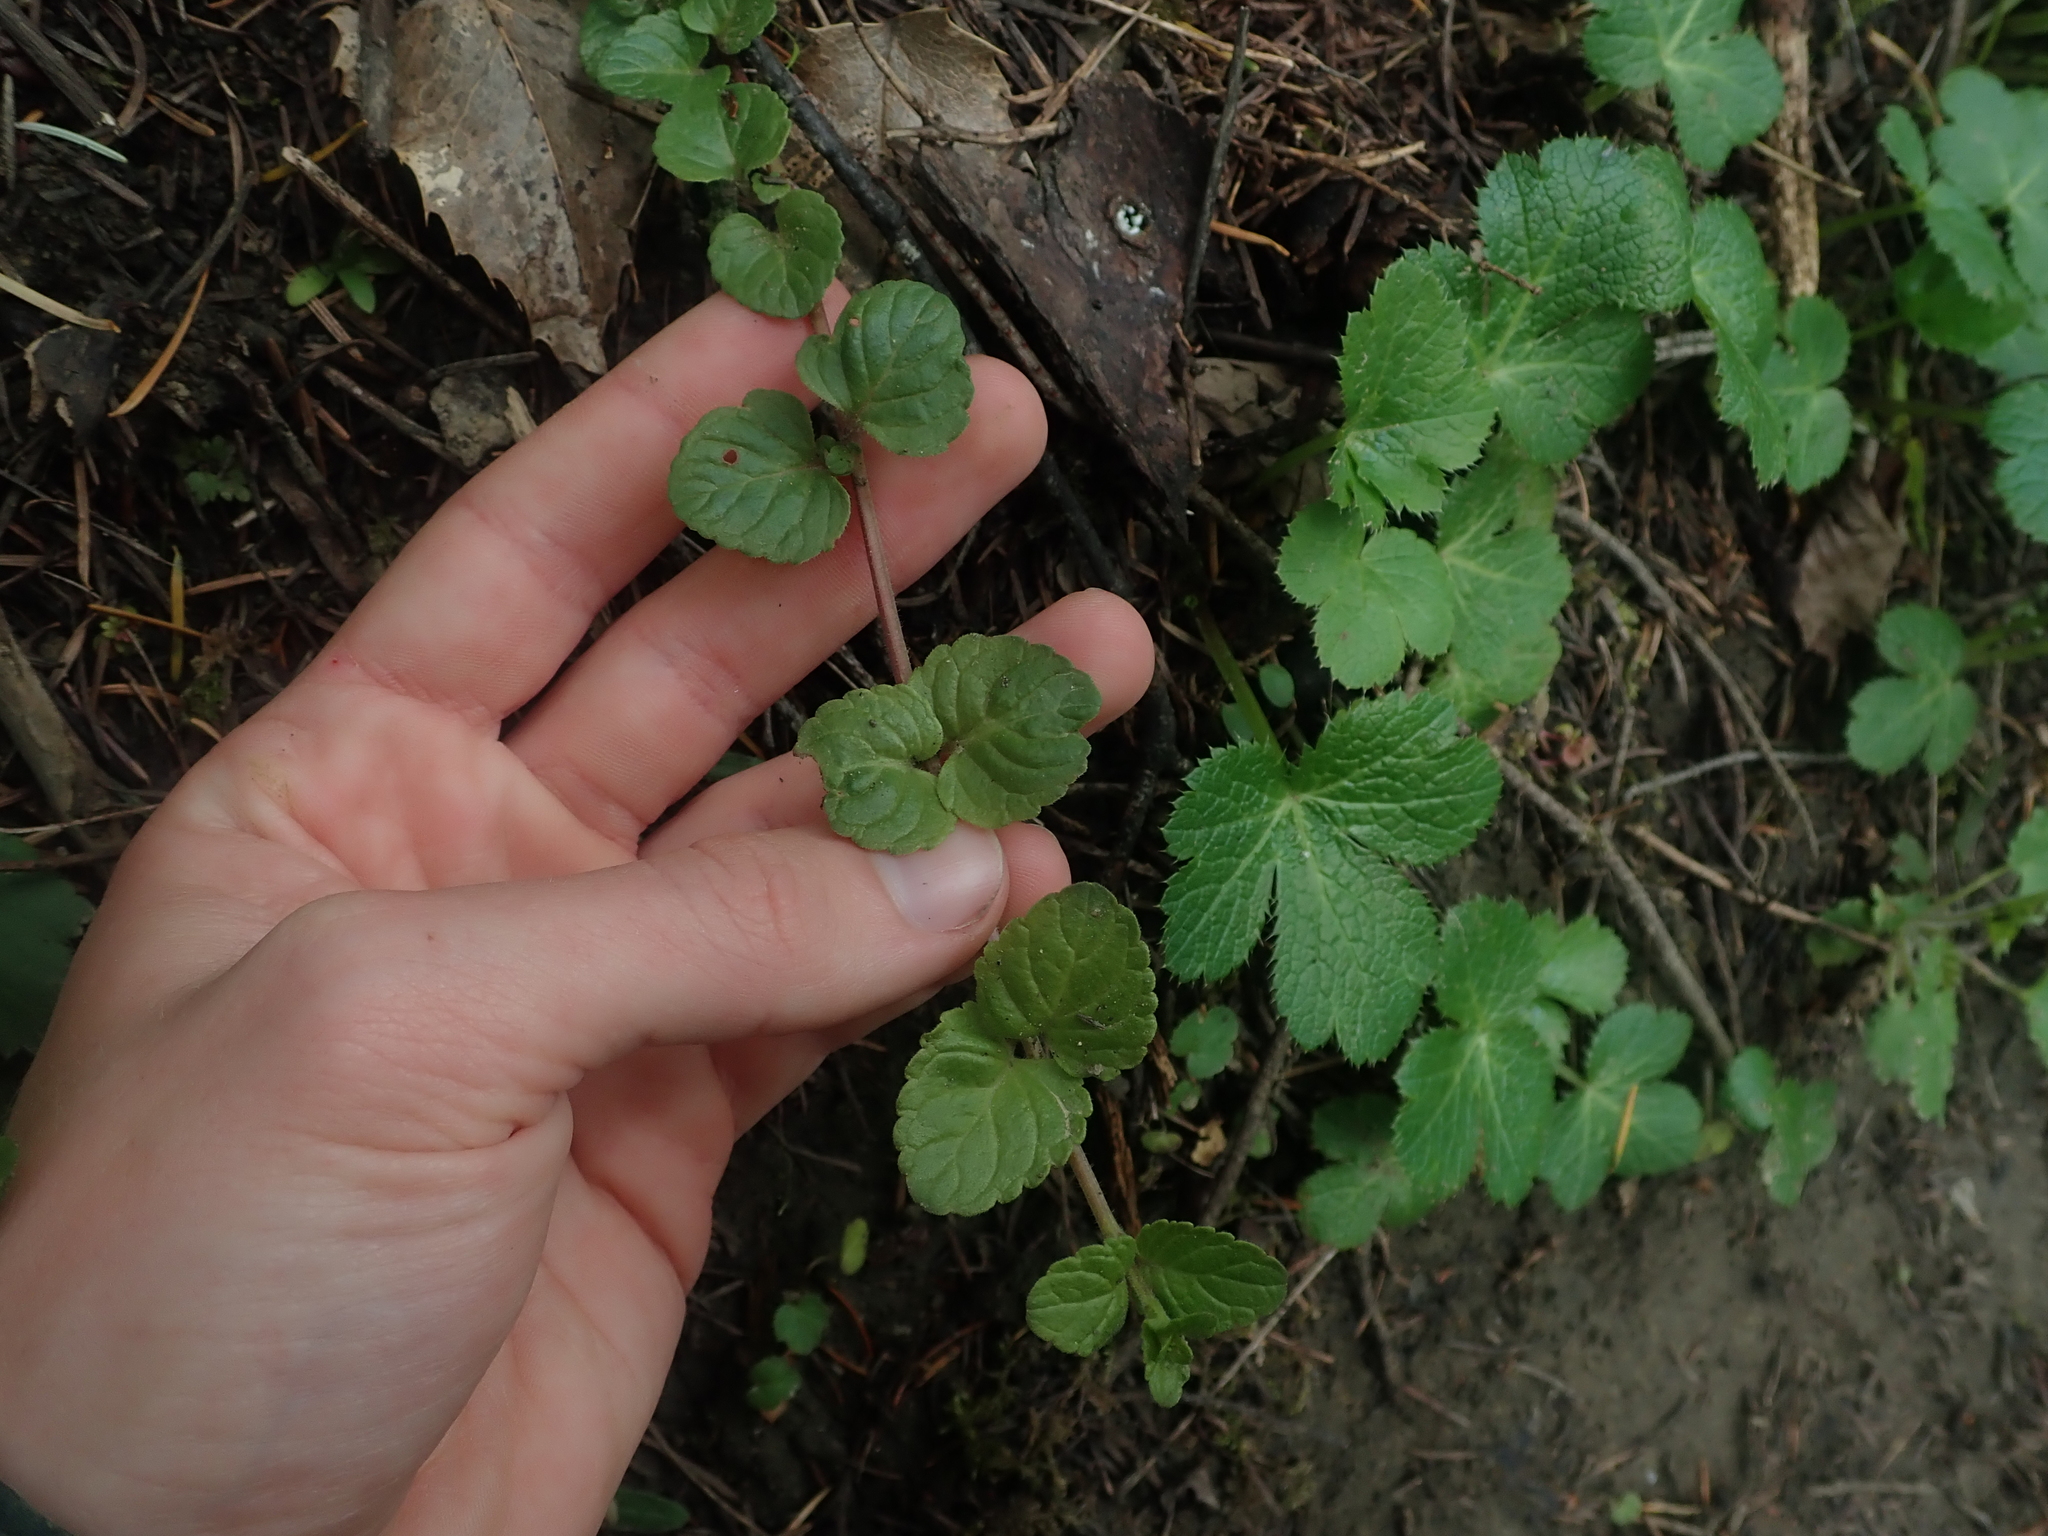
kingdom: Plantae
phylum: Tracheophyta
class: Magnoliopsida
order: Lamiales
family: Lamiaceae
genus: Micromeria
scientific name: Micromeria douglasii
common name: Yerba buena
